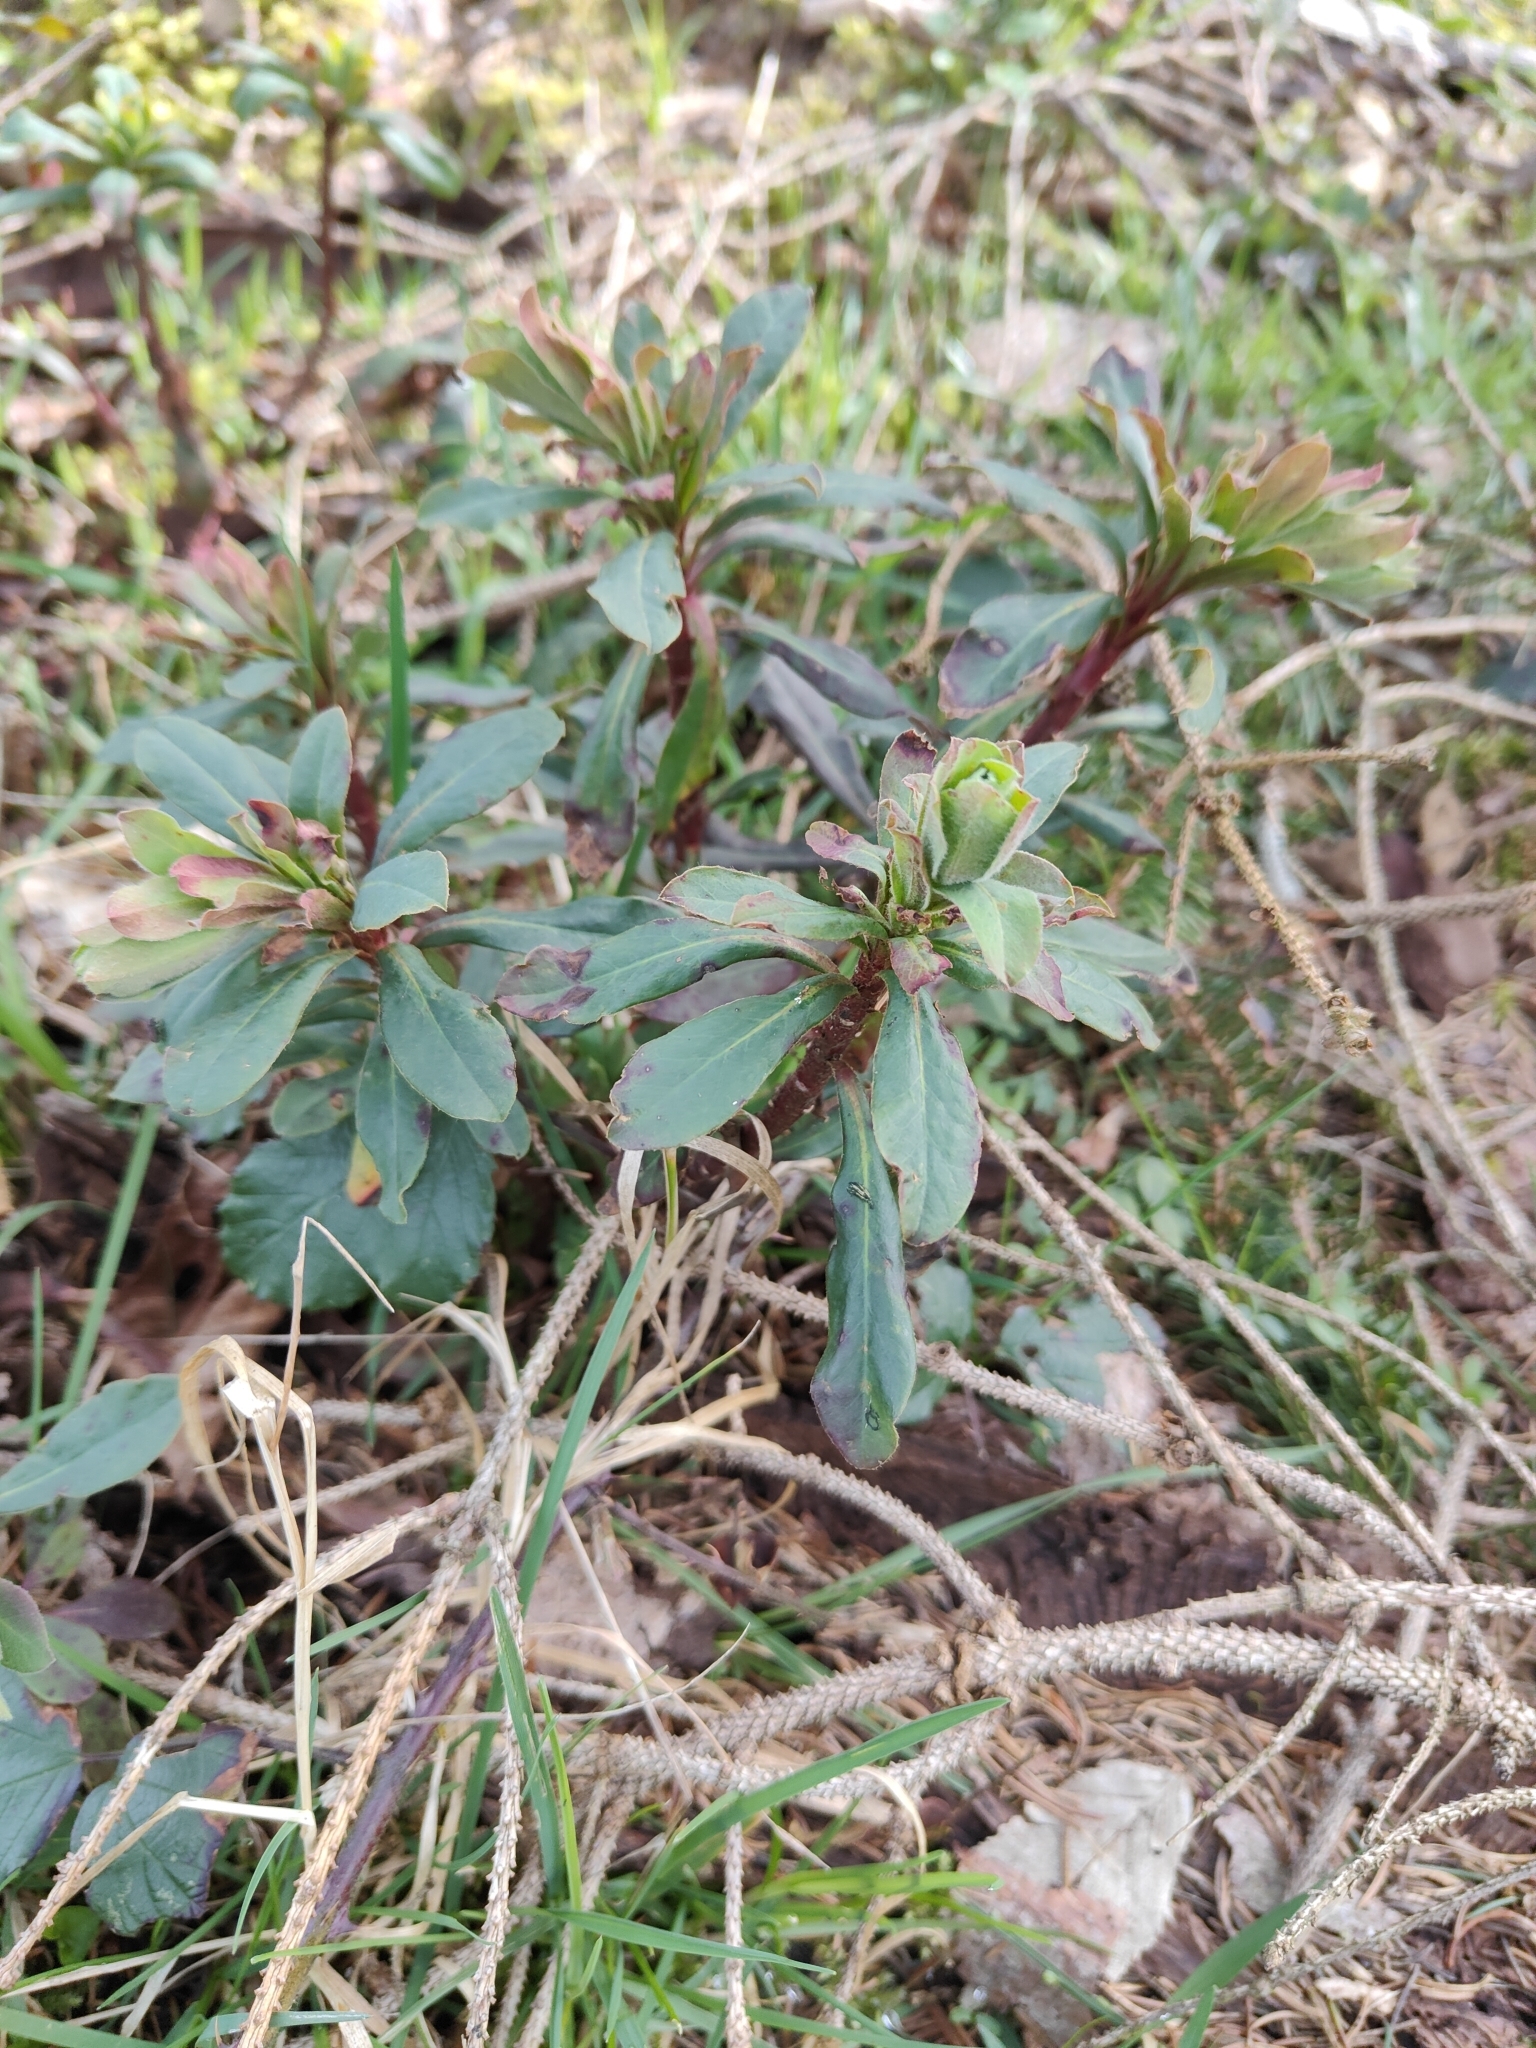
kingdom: Plantae
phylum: Tracheophyta
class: Magnoliopsida
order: Malpighiales
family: Euphorbiaceae
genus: Euphorbia
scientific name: Euphorbia amygdaloides
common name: Wood spurge
